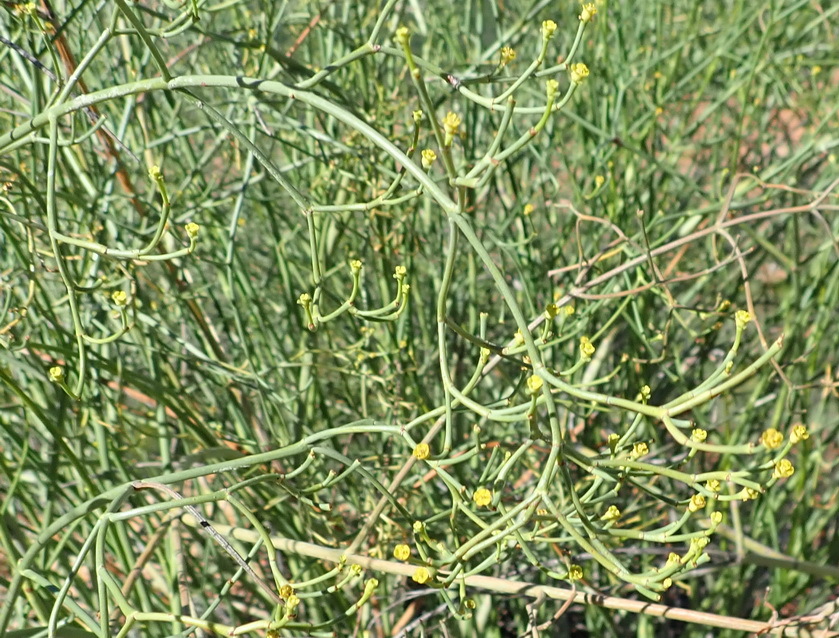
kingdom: Plantae
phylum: Tracheophyta
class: Magnoliopsida
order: Malpighiales
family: Euphorbiaceae
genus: Euphorbia
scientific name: Euphorbia rhombifolia
